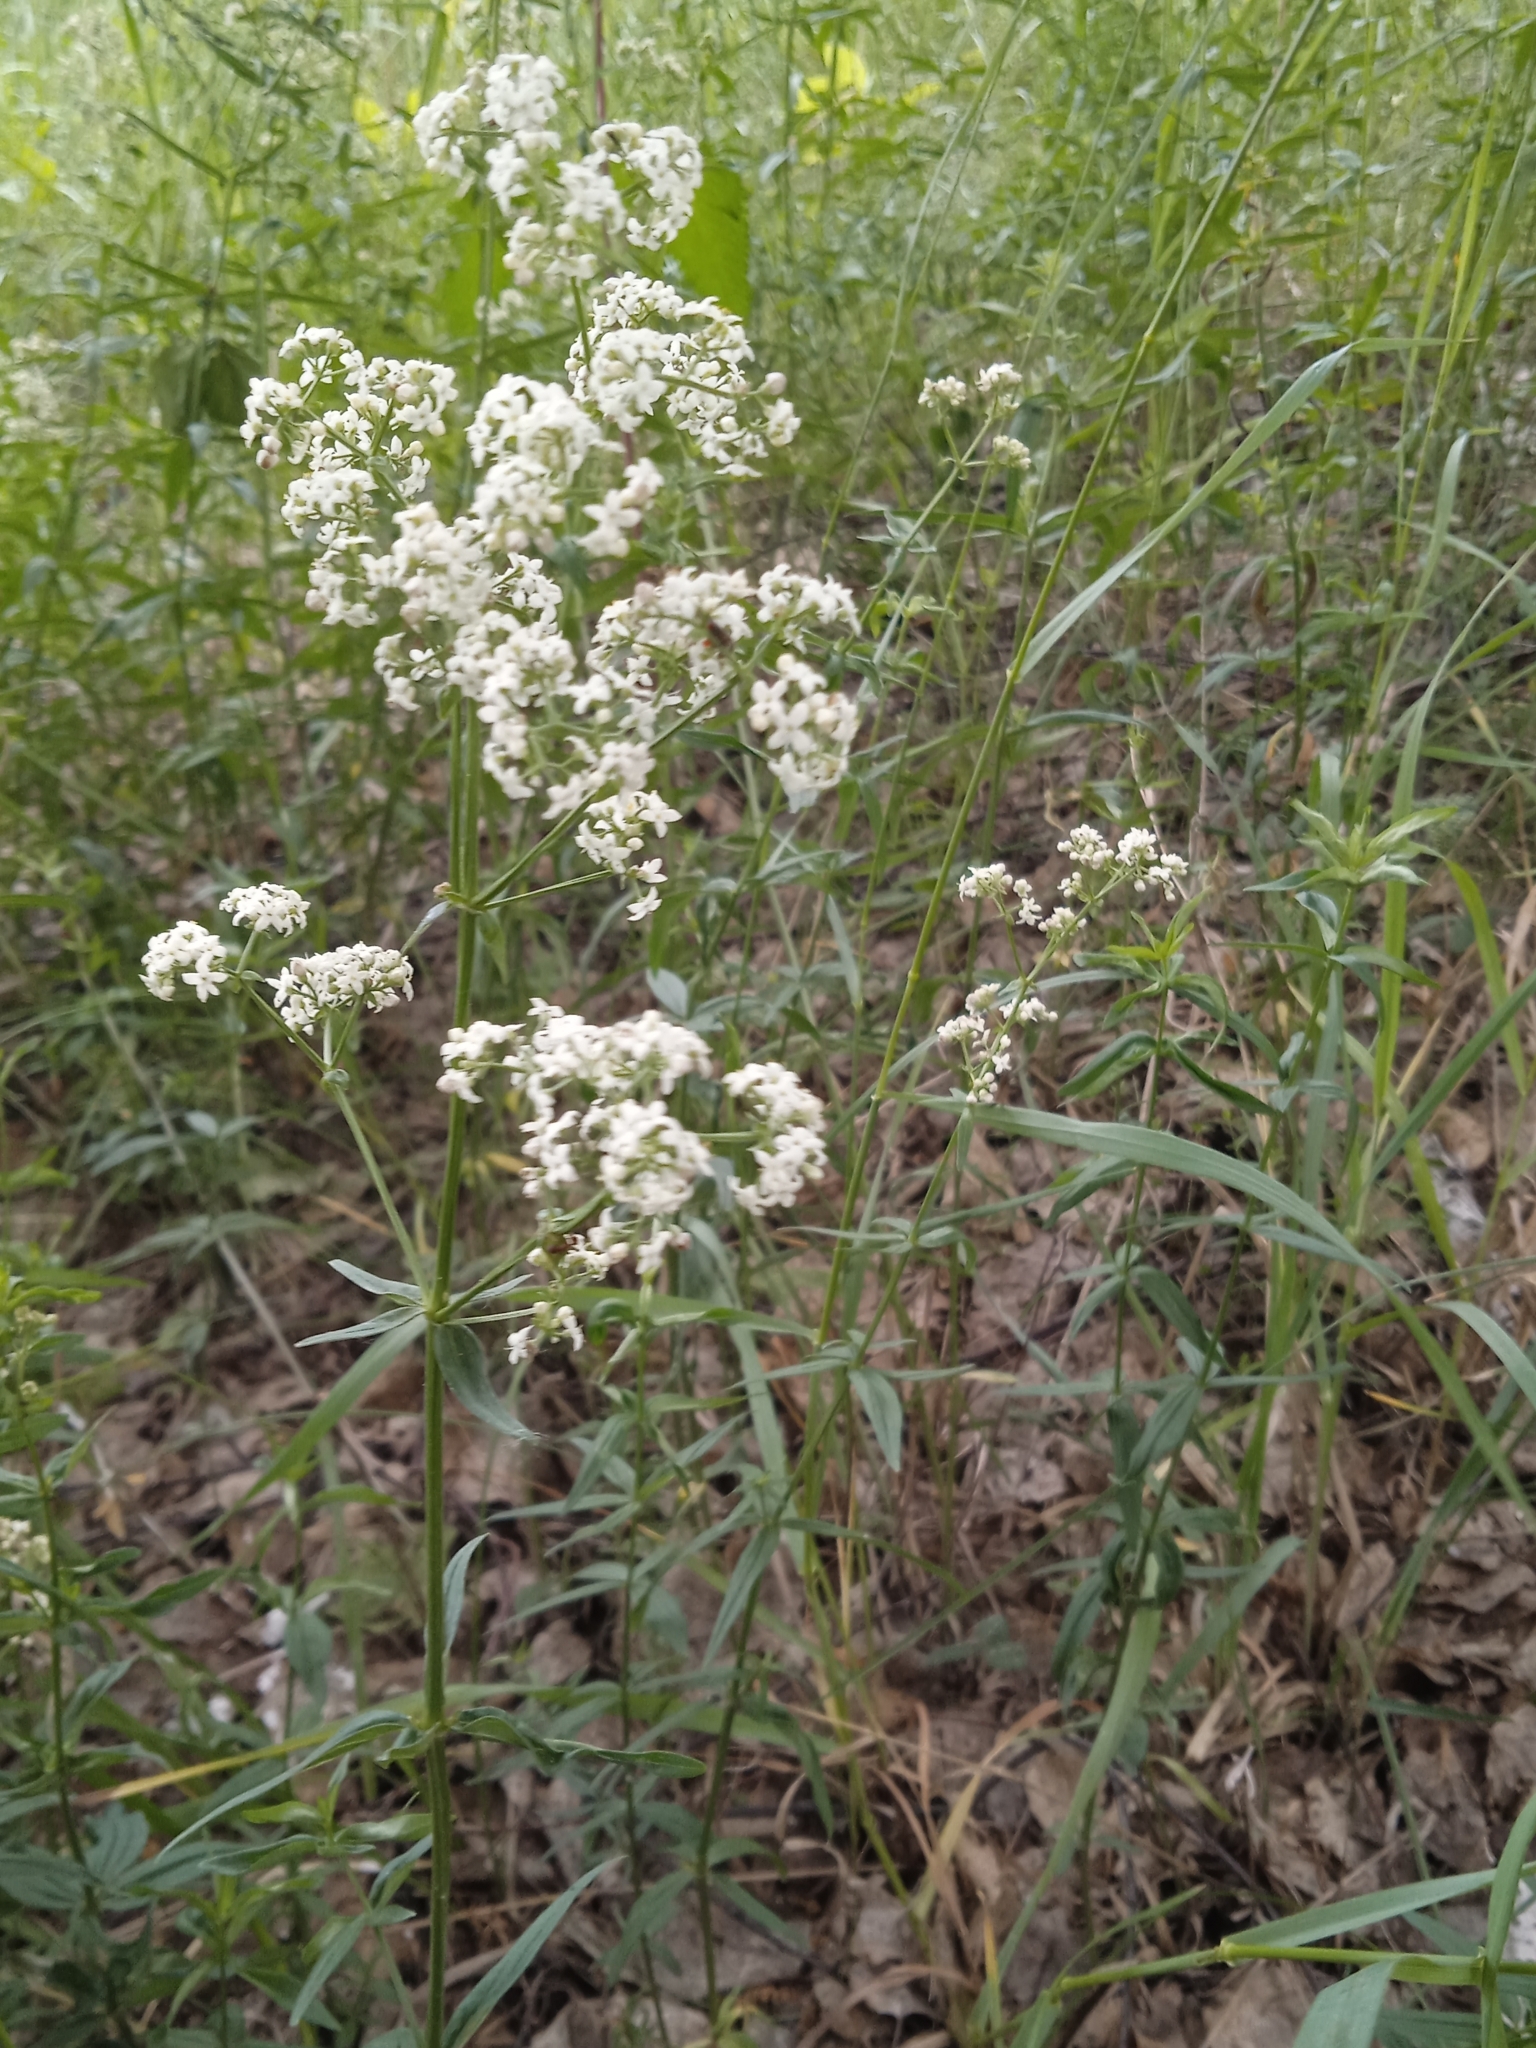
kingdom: Plantae
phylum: Tracheophyta
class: Magnoliopsida
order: Gentianales
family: Rubiaceae
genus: Galium
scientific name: Galium boreale
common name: Northern bedstraw
